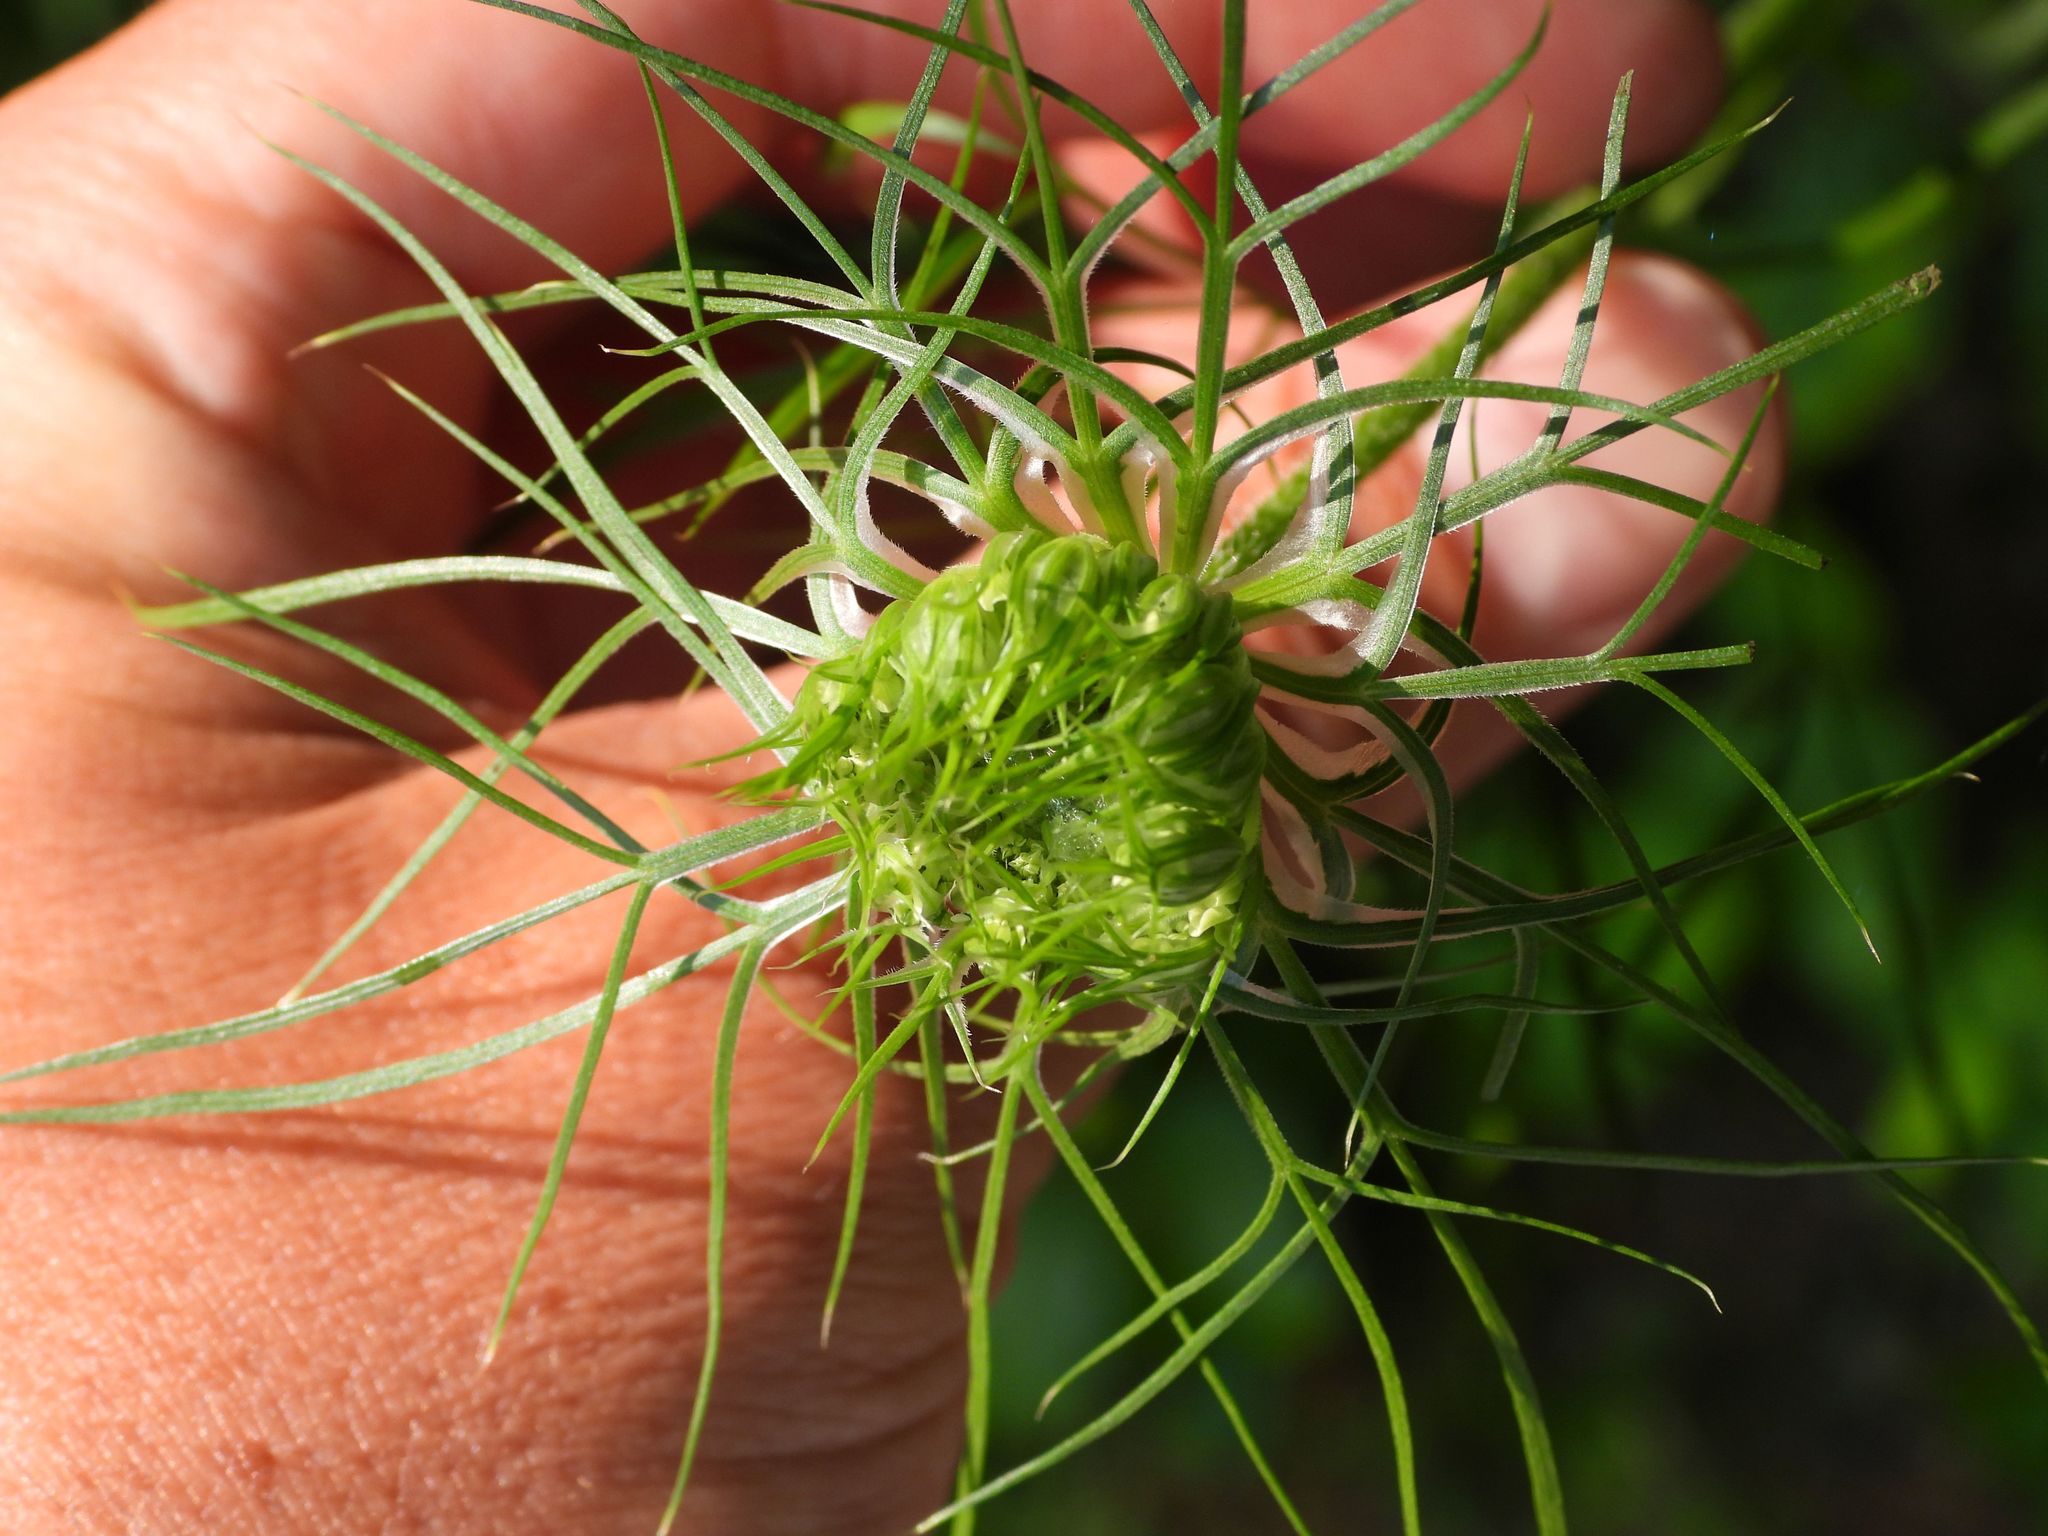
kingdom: Plantae
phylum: Tracheophyta
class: Magnoliopsida
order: Apiales
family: Apiaceae
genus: Daucus
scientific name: Daucus carota
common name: Wild carrot
